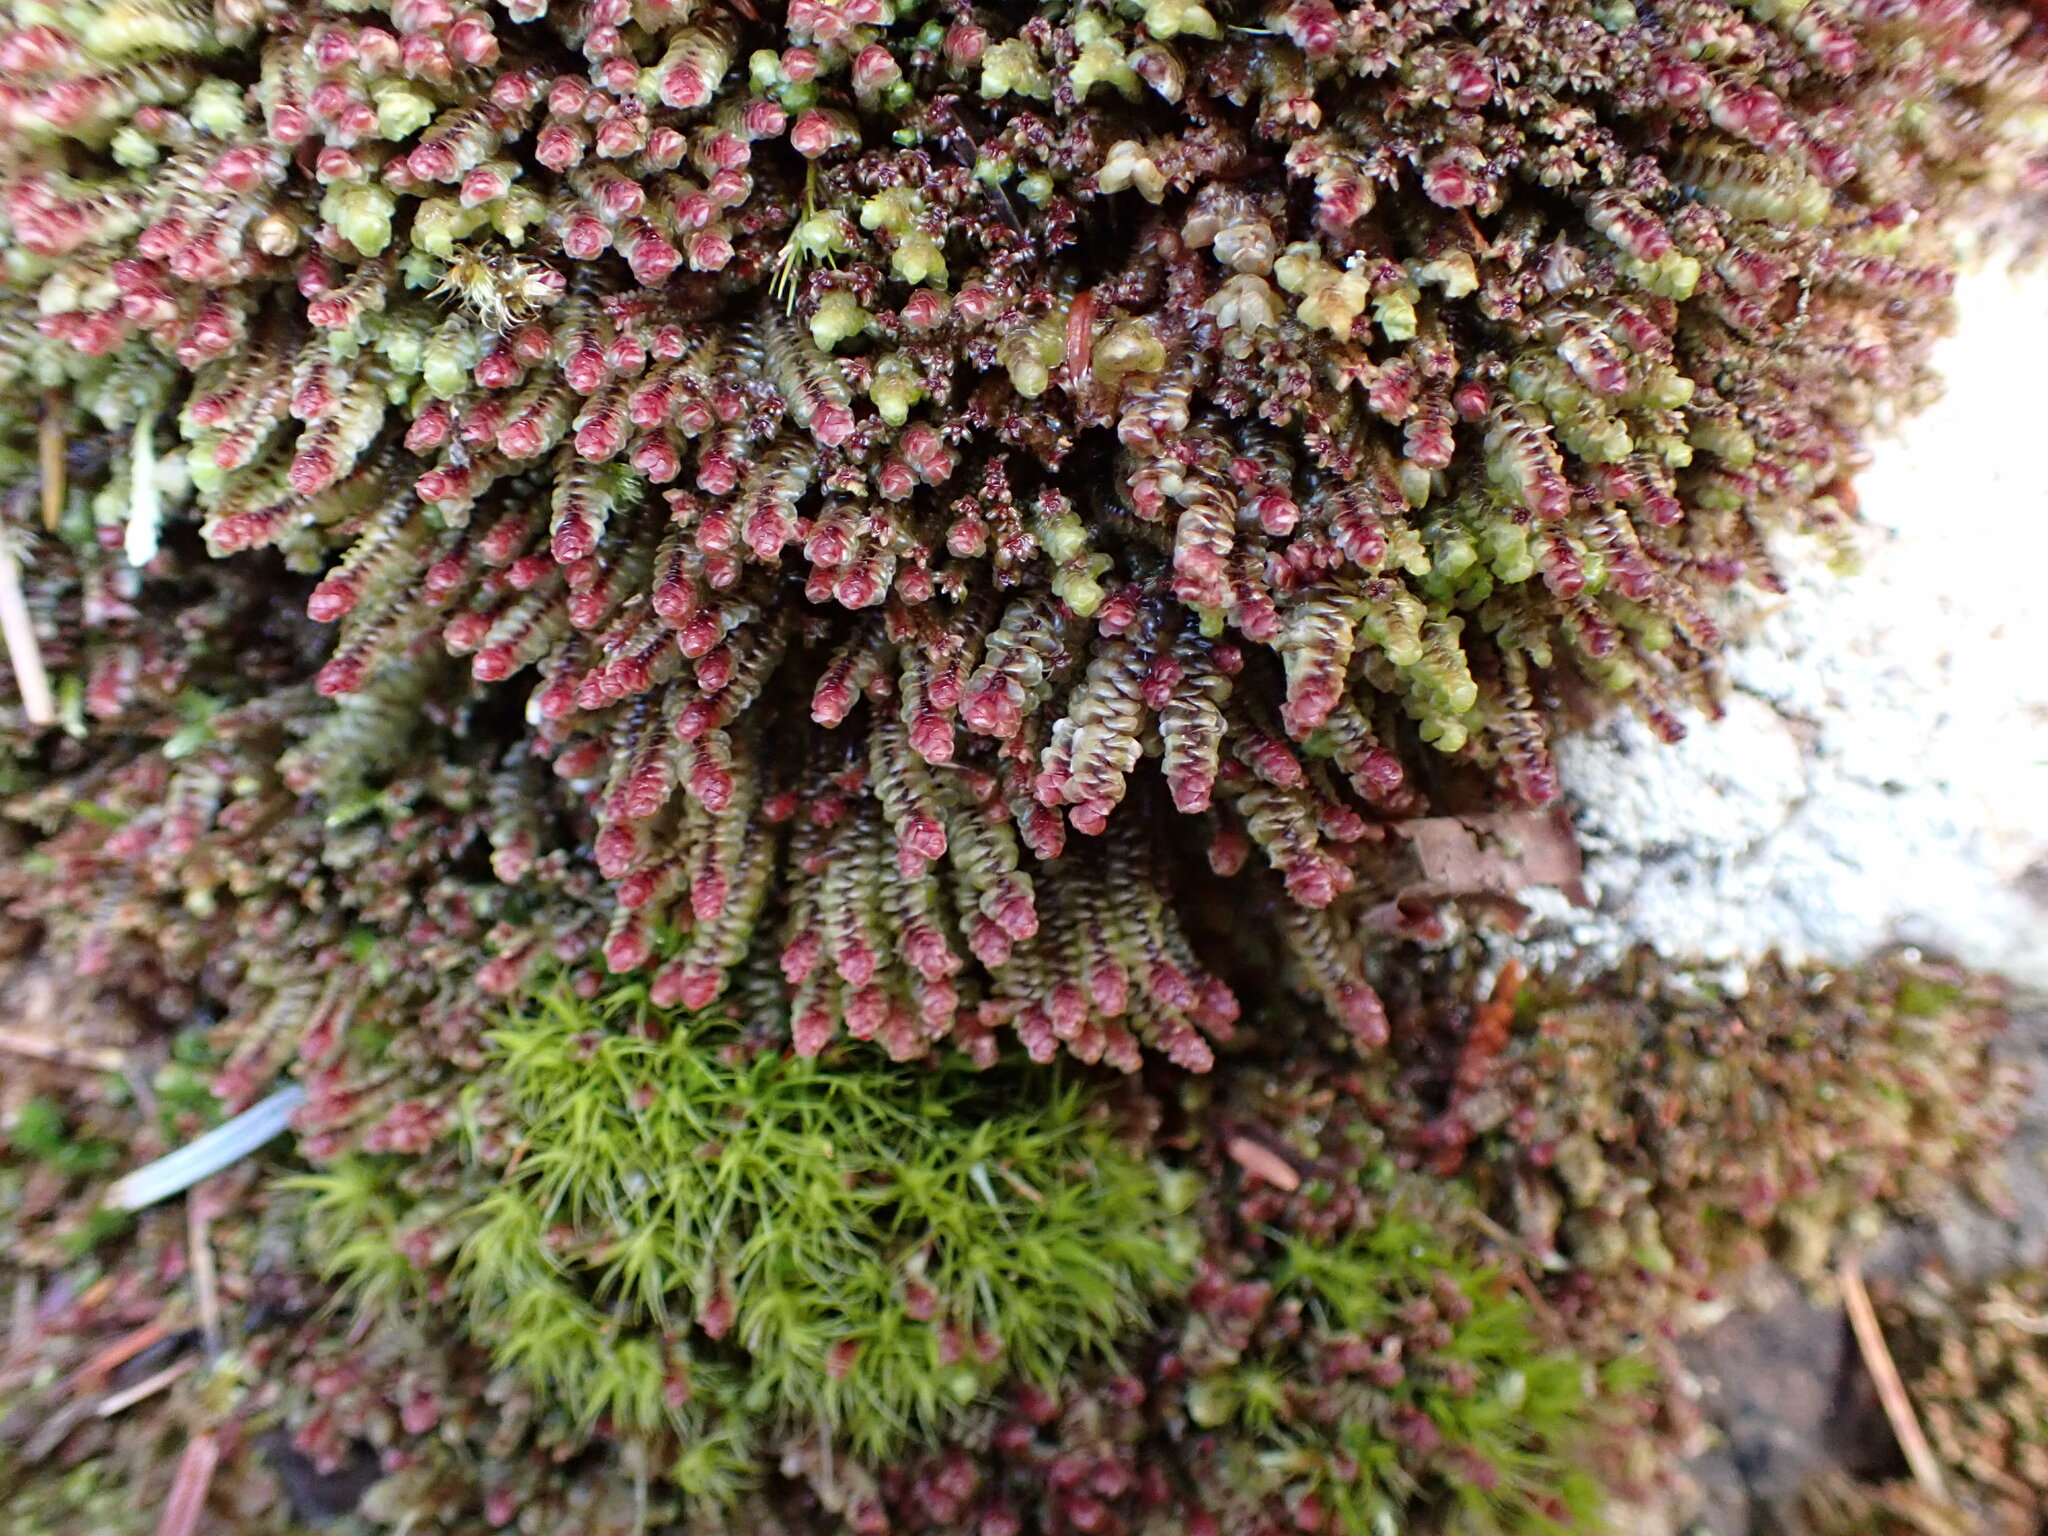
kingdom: Plantae
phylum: Marchantiophyta
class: Jungermanniopsida
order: Jungermanniales
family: Scapaniaceae
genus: Scapania
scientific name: Scapania americana
